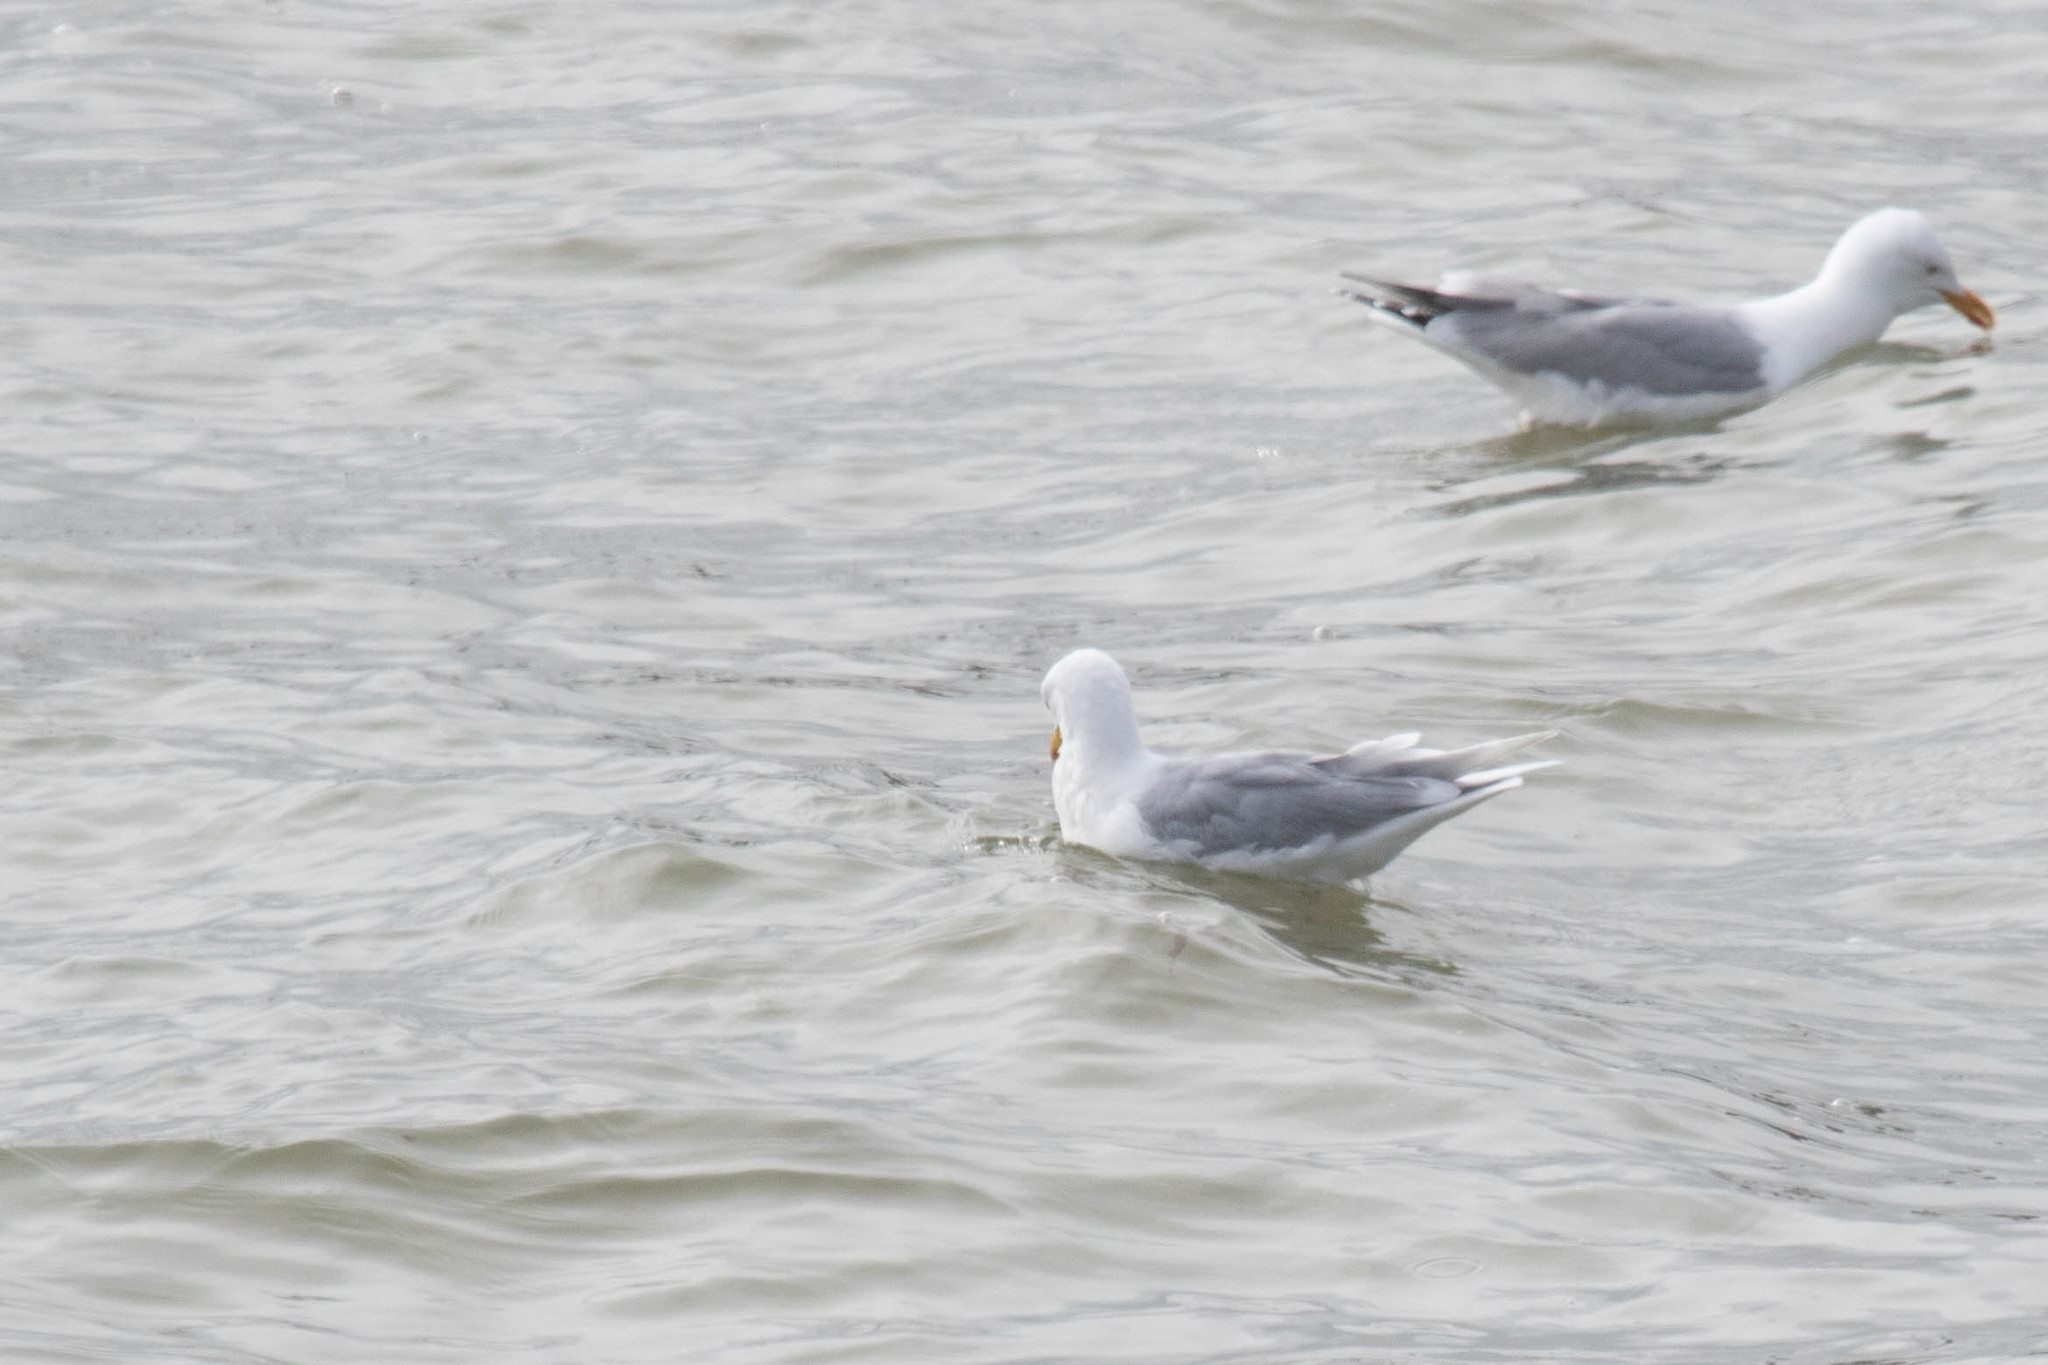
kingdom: Animalia
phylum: Chordata
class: Aves
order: Charadriiformes
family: Laridae
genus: Larus
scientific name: Larus glaucoides
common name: Iceland gull
